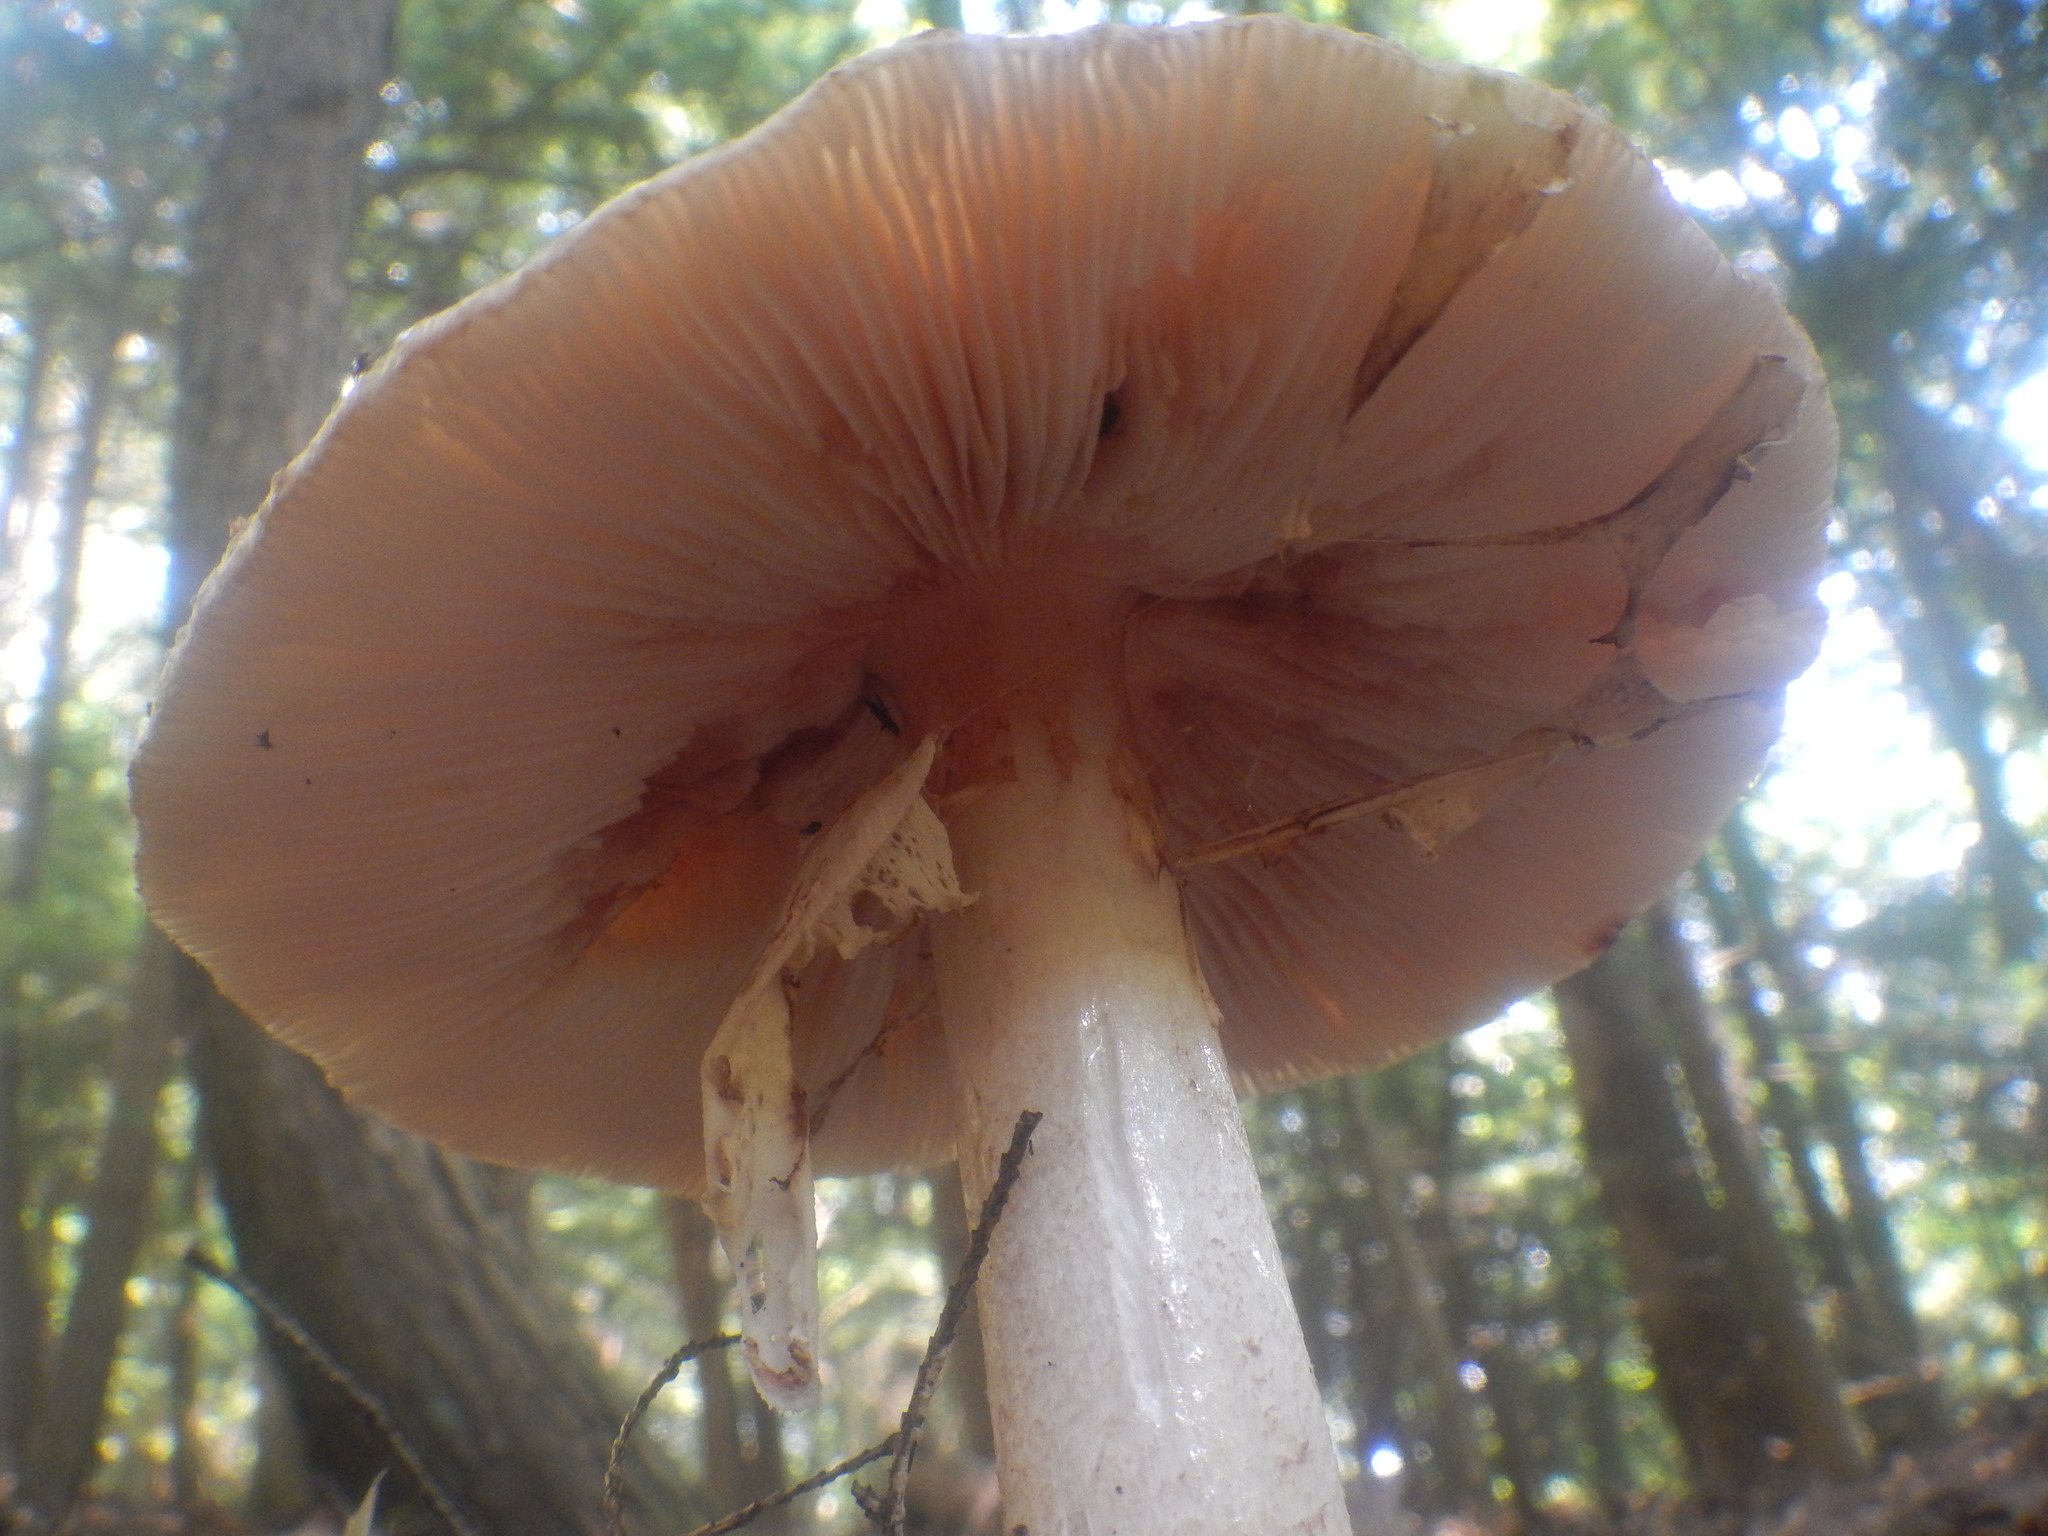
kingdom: Fungi
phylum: Basidiomycota
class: Agaricomycetes
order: Agaricales
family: Amanitaceae
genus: Amanita
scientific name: Amanita rubescens
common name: Blusher
